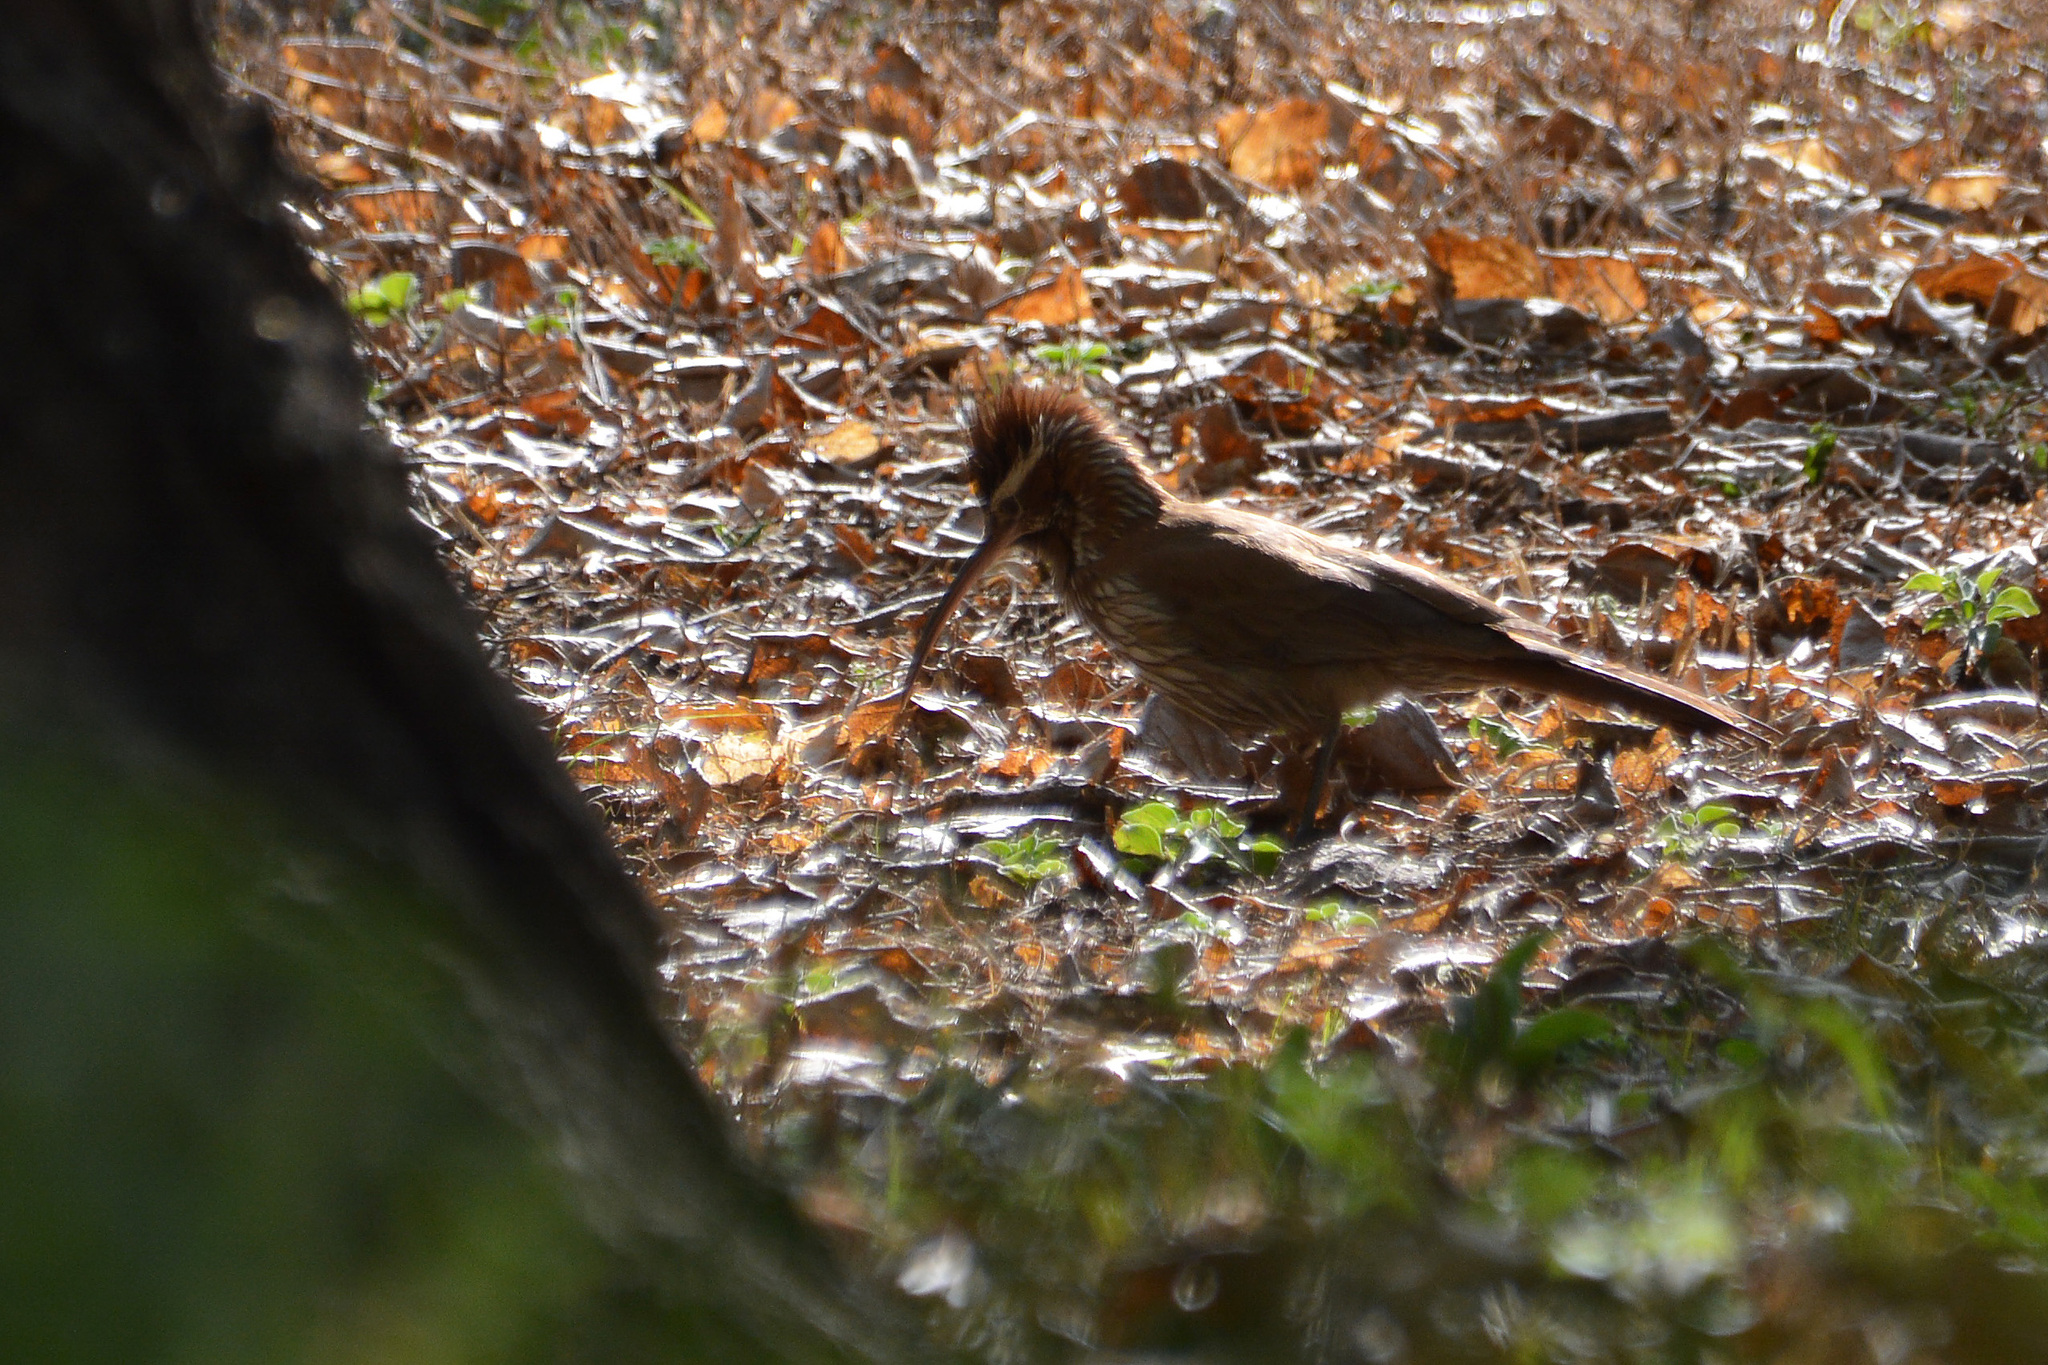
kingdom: Animalia
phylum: Chordata
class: Aves
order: Passeriformes
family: Furnariidae
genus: Drymornis
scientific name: Drymornis bridgesii
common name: Scimitar-billed woodcreeper
